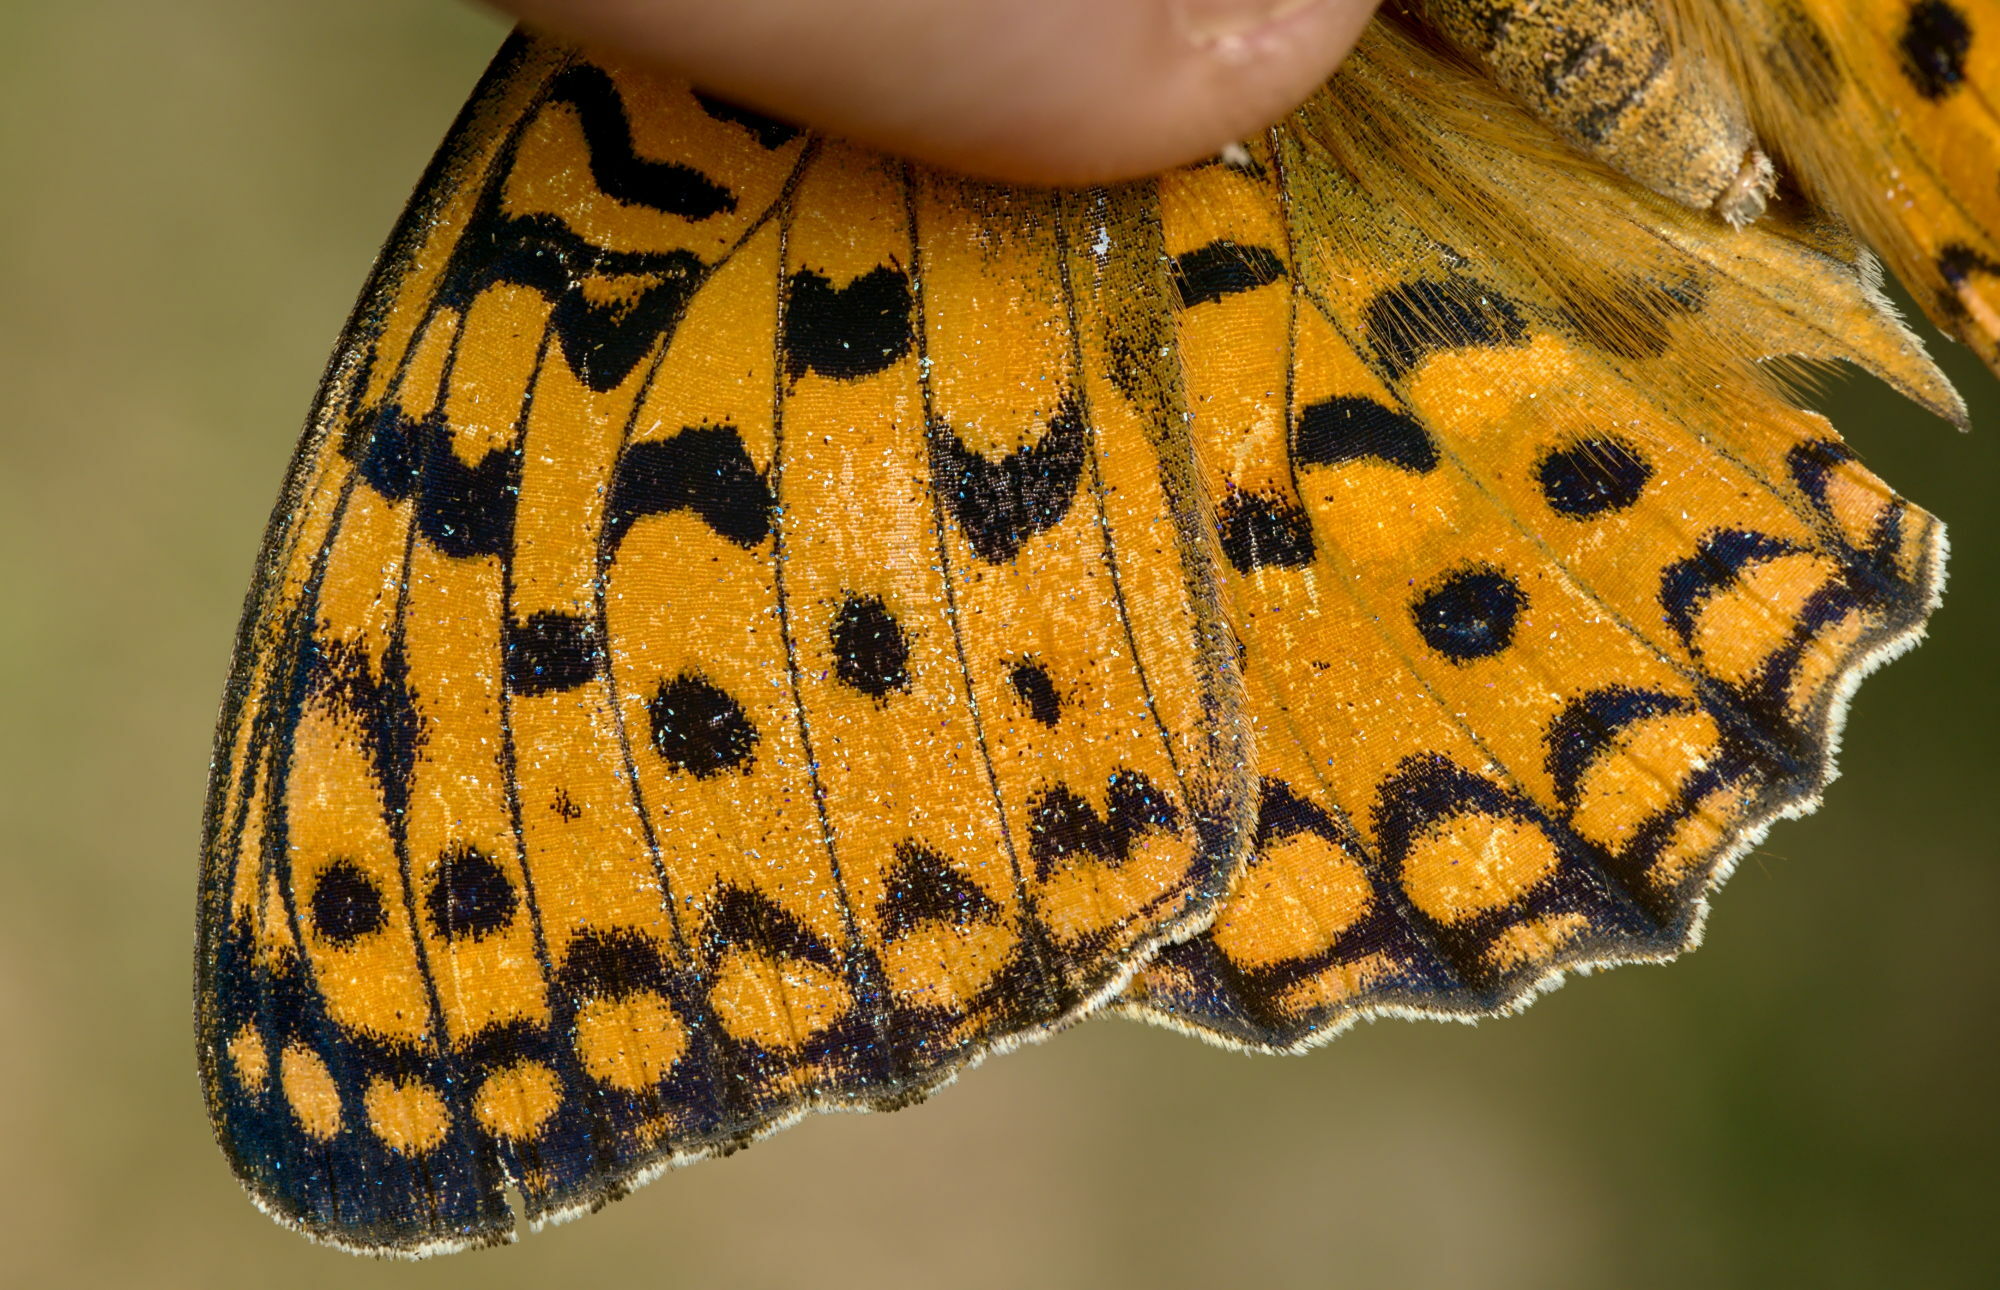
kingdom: Animalia
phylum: Arthropoda
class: Insecta
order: Lepidoptera
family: Nymphalidae
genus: Fabriciana
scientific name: Fabriciana adippe
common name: High brown fritillary
